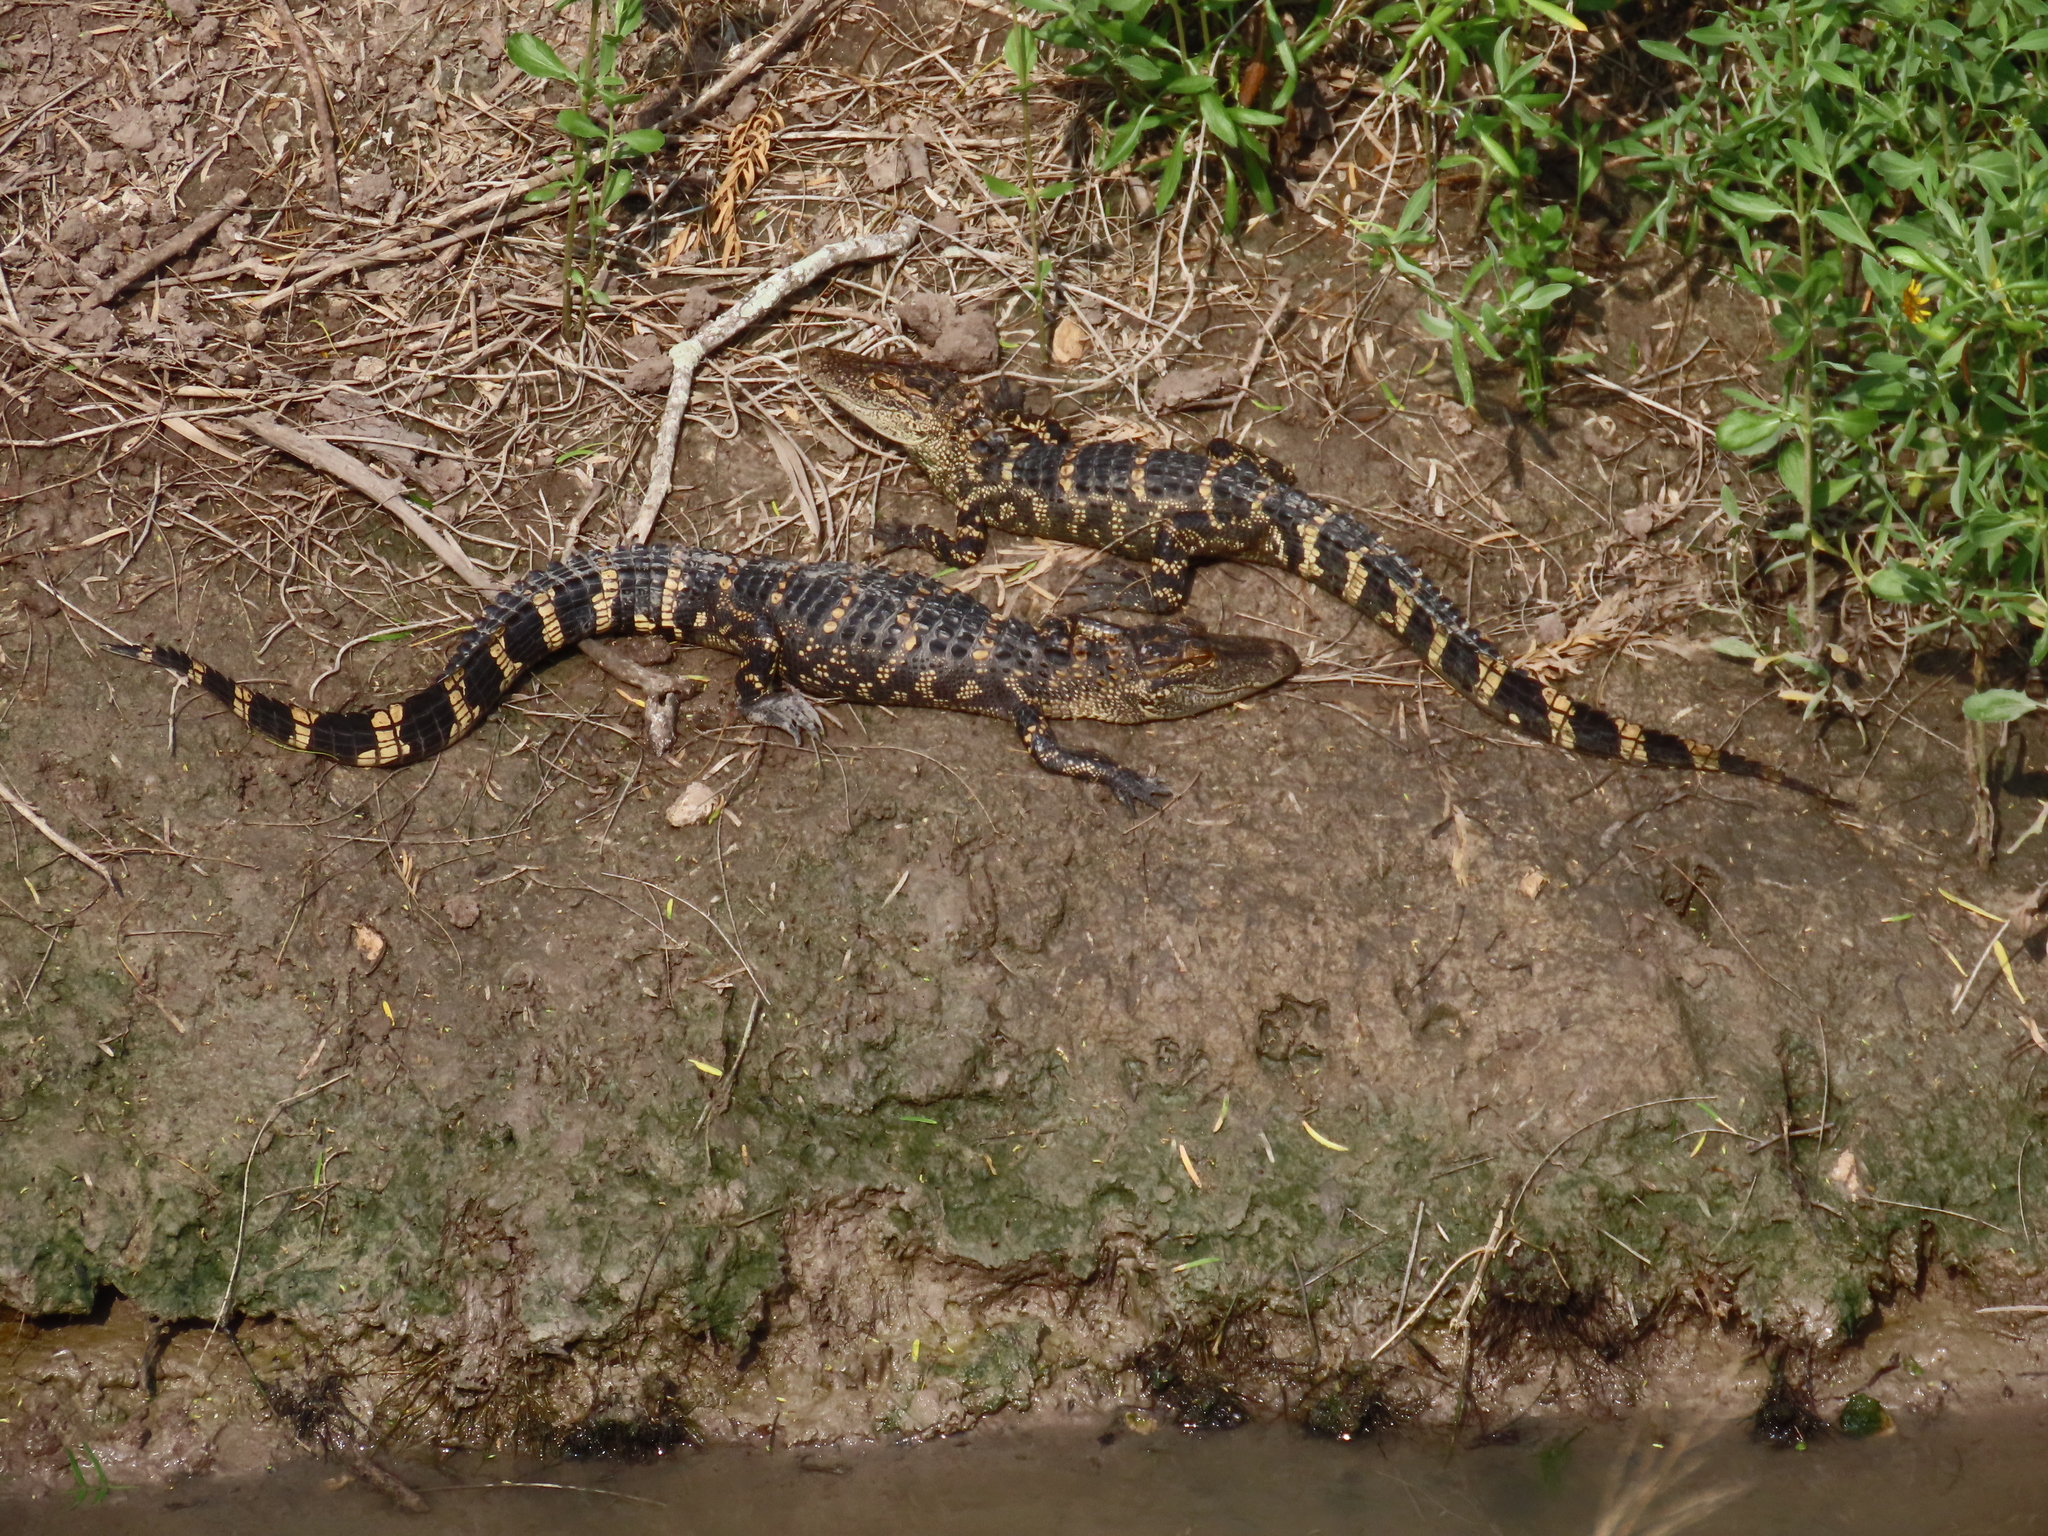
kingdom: Animalia
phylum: Chordata
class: Crocodylia
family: Alligatoridae
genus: Alligator
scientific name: Alligator mississippiensis
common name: American alligator
